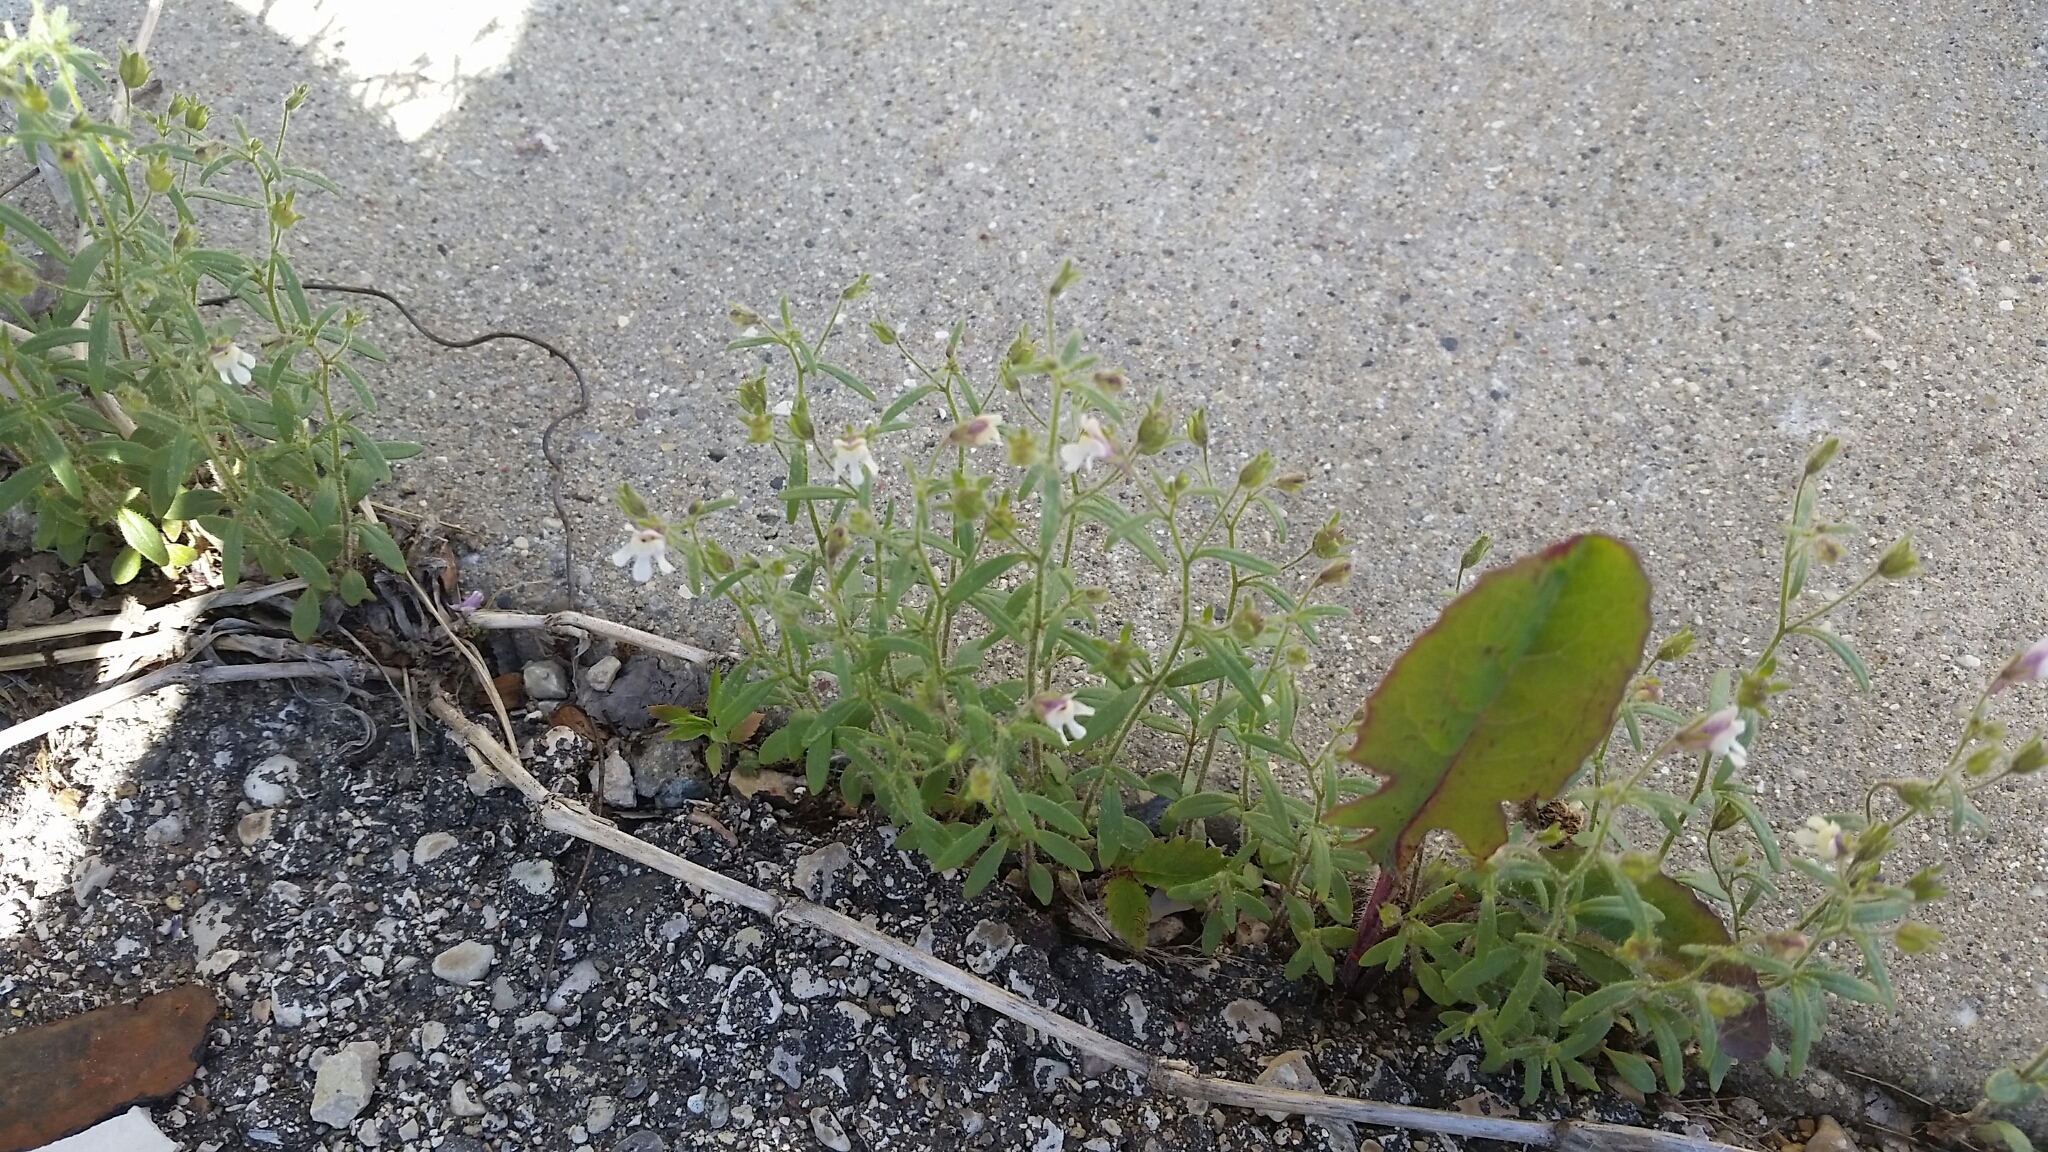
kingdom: Plantae
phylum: Tracheophyta
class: Magnoliopsida
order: Lamiales
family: Plantaginaceae
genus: Chaenorhinum
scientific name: Chaenorhinum minus
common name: Dwarf snapdragon
